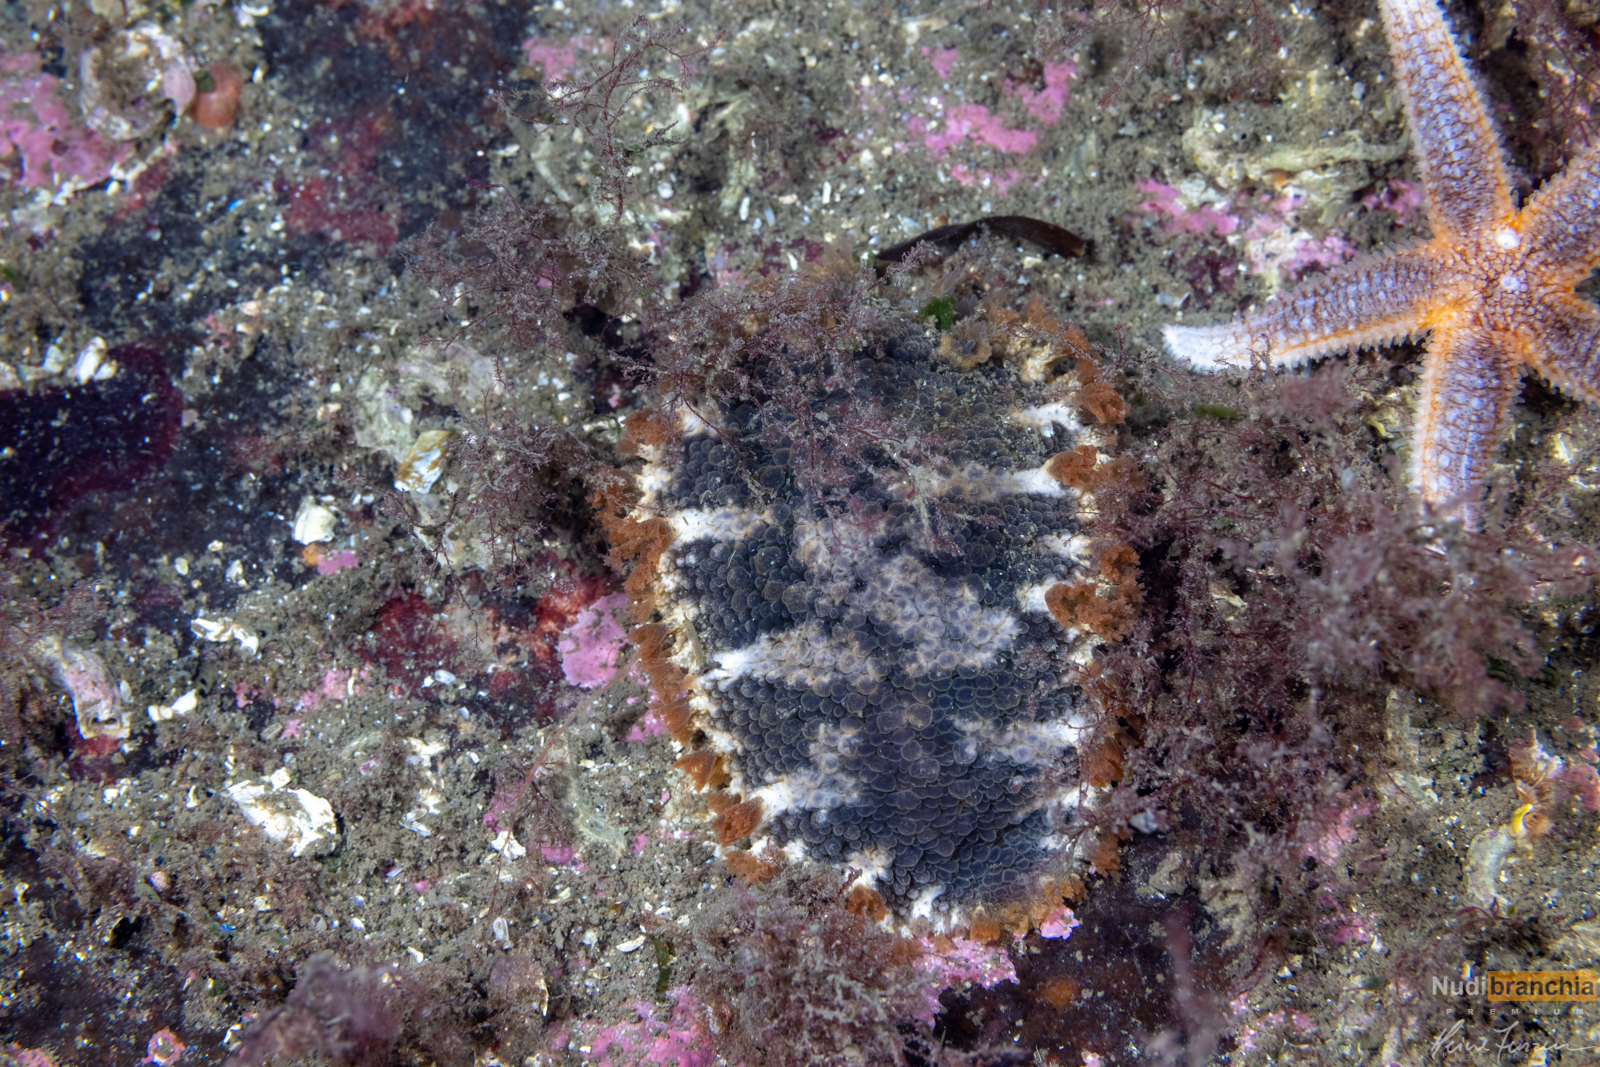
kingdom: Animalia
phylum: Mollusca
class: Gastropoda
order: Nudibranchia
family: Tritoniidae
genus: Tritonia
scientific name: Tritonia hombergii
